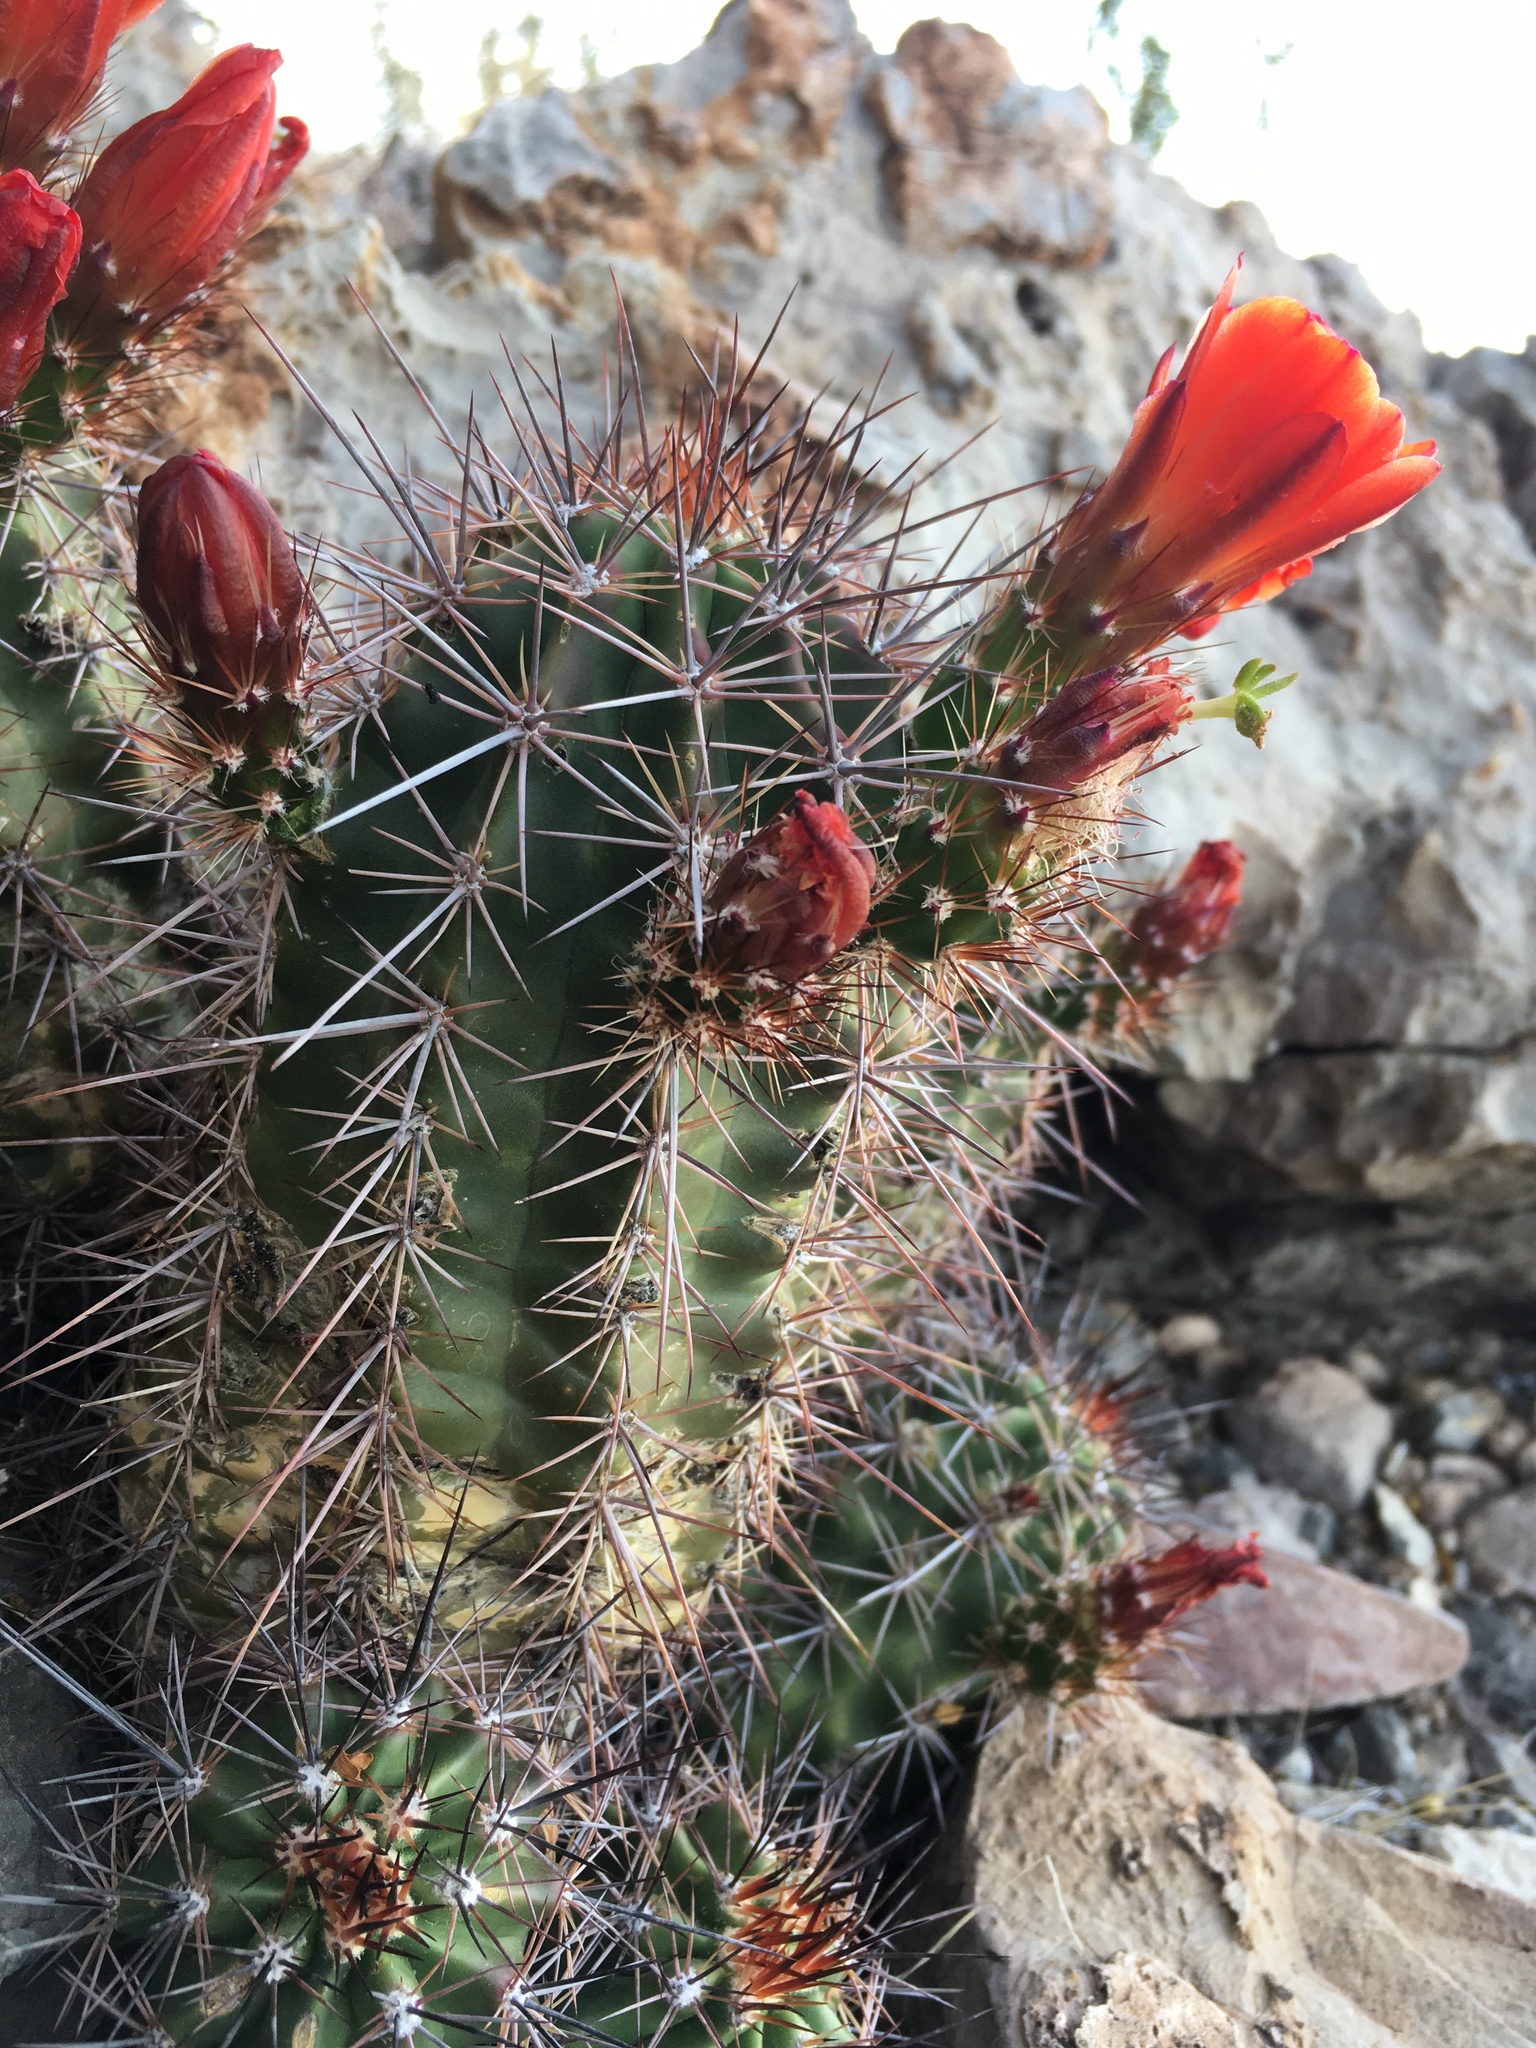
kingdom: Plantae
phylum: Tracheophyta
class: Magnoliopsida
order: Caryophyllales
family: Cactaceae
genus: Echinocereus
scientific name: Echinocereus coccineus
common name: Scarlet hedgehog cactus
